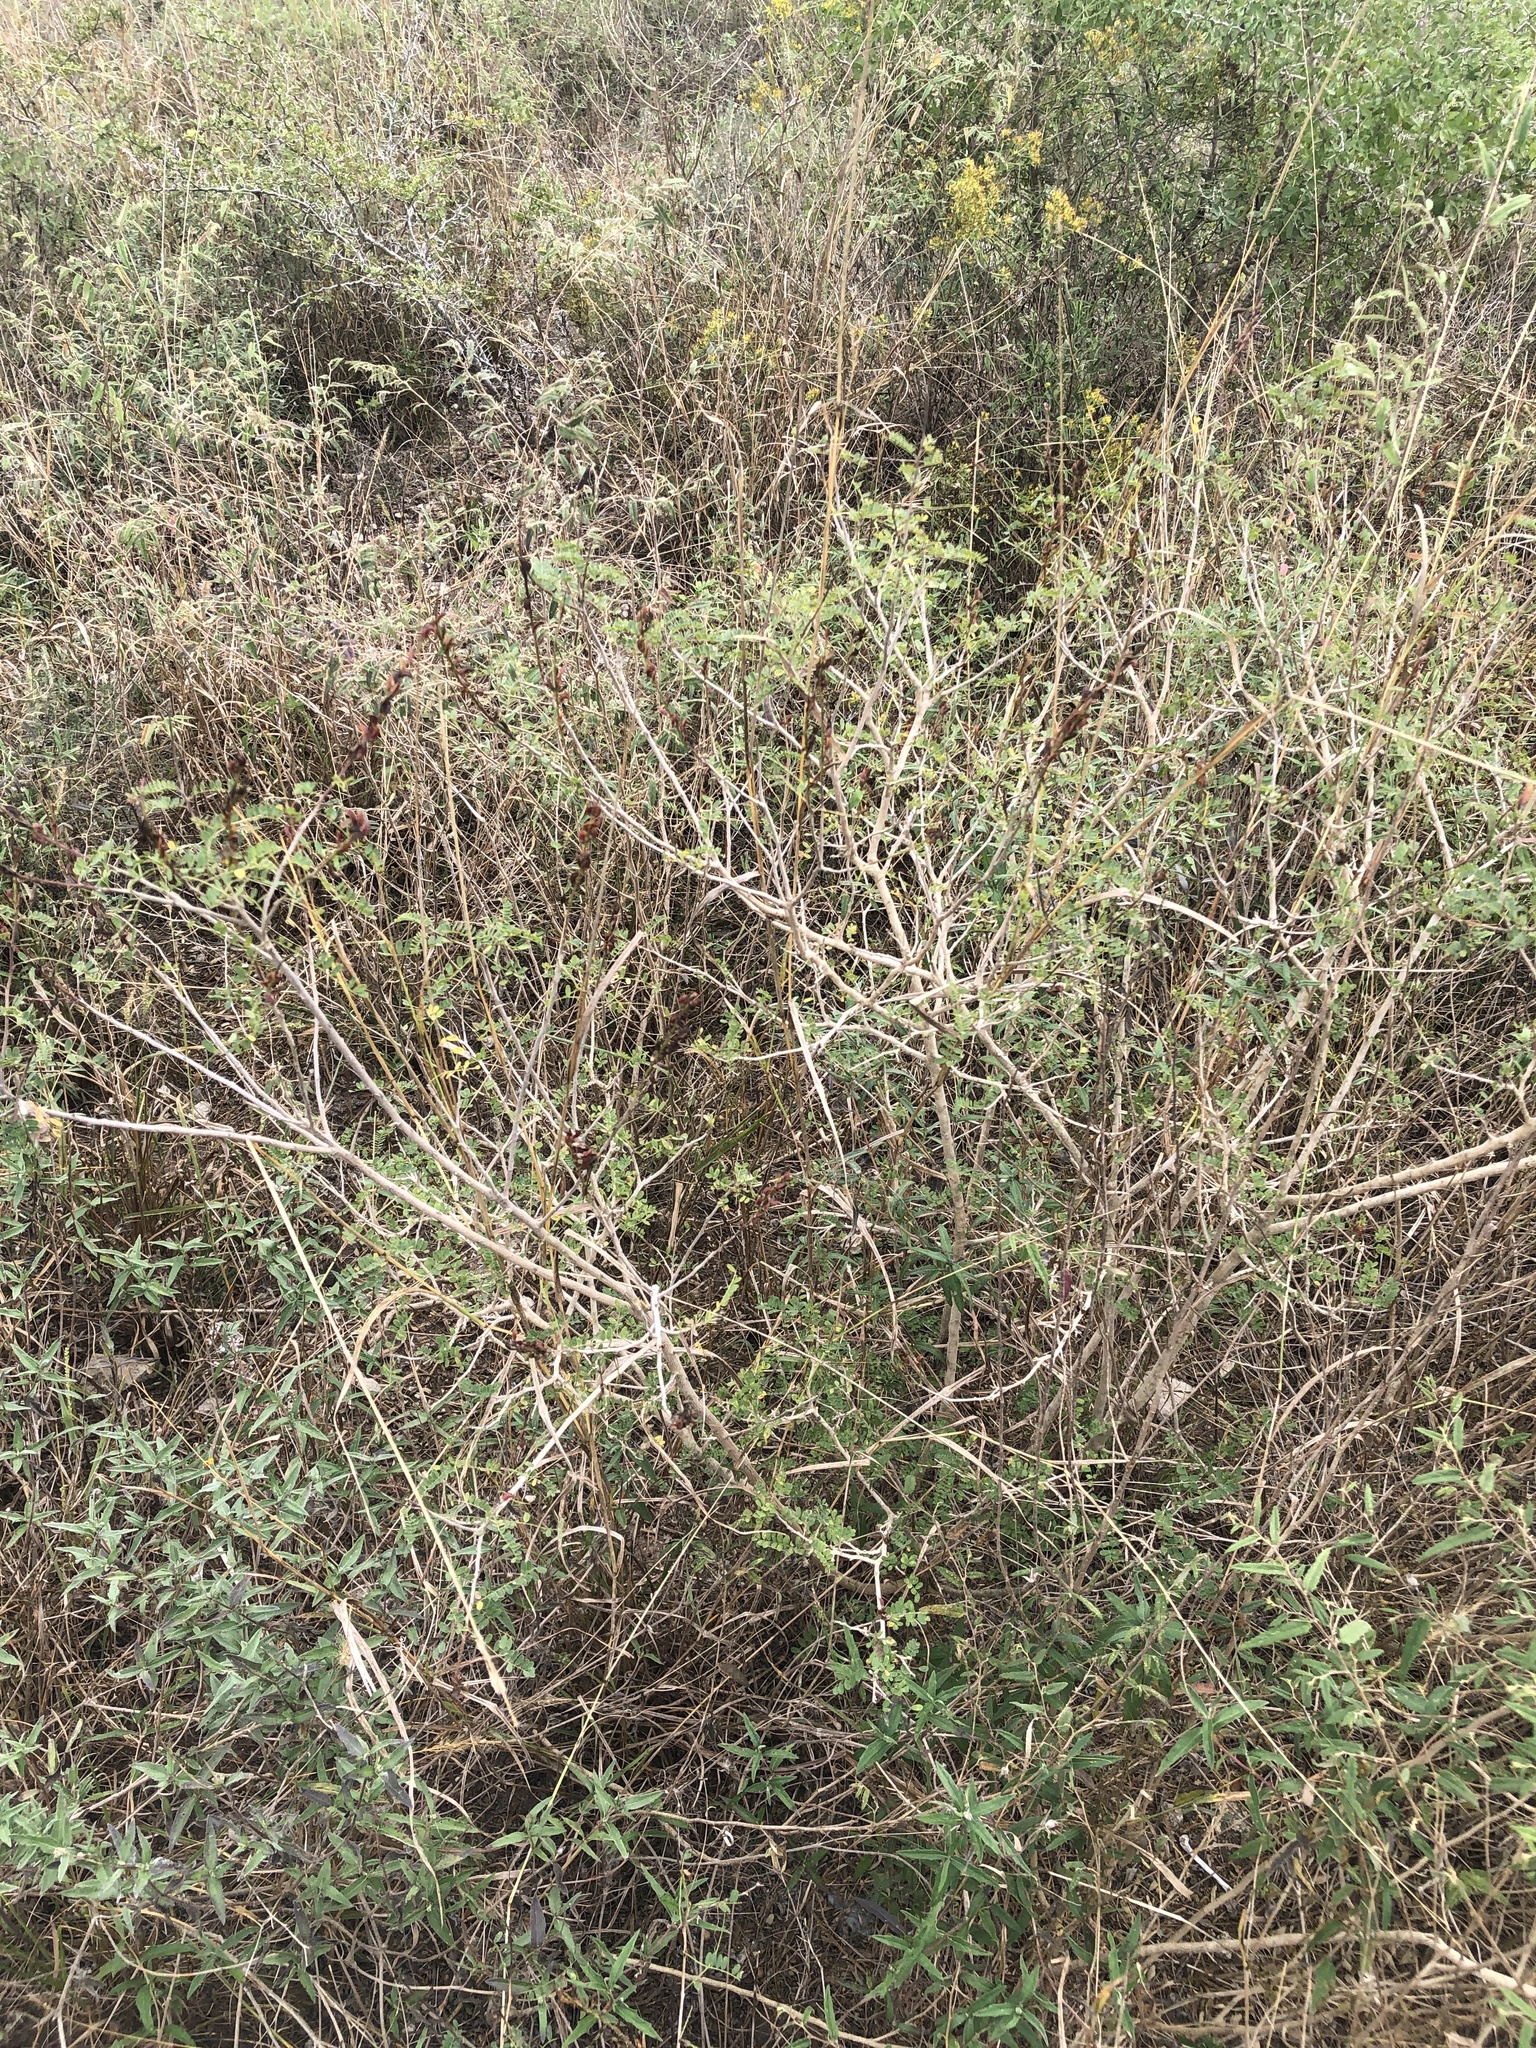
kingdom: Plantae
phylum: Tracheophyta
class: Magnoliopsida
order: Fabales
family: Fabaceae
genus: Eysenhardtia
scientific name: Eysenhardtia texana
